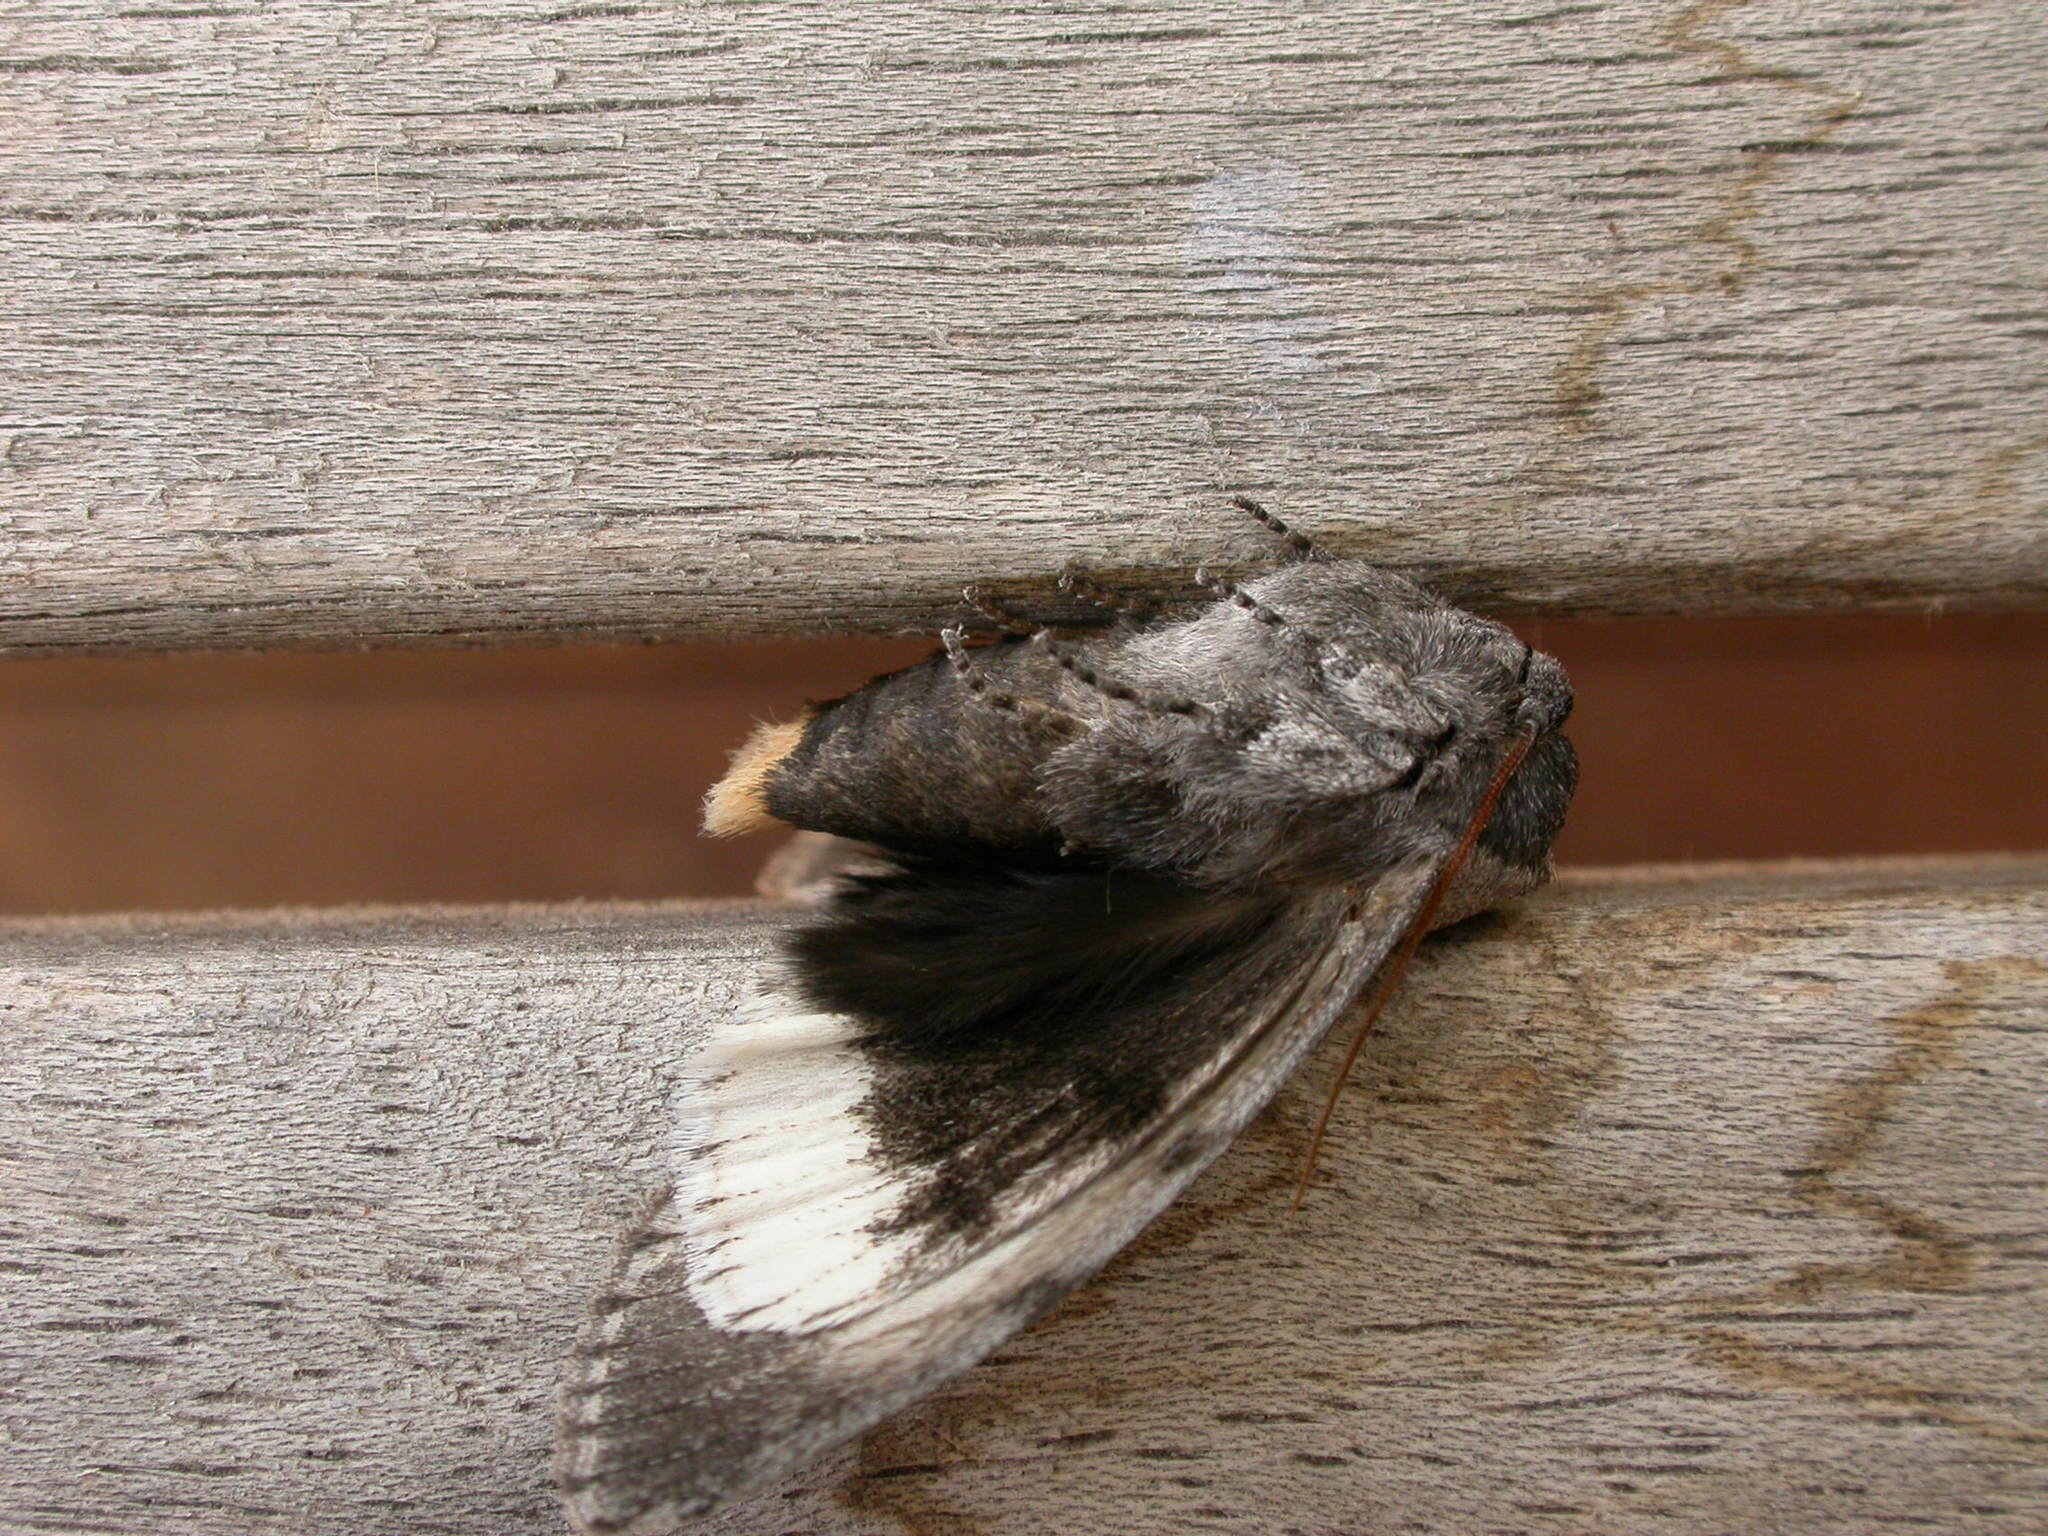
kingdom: Animalia
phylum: Arthropoda
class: Insecta
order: Lepidoptera
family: Oenosandridae
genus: Discophlebia
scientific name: Discophlebia catocalina
